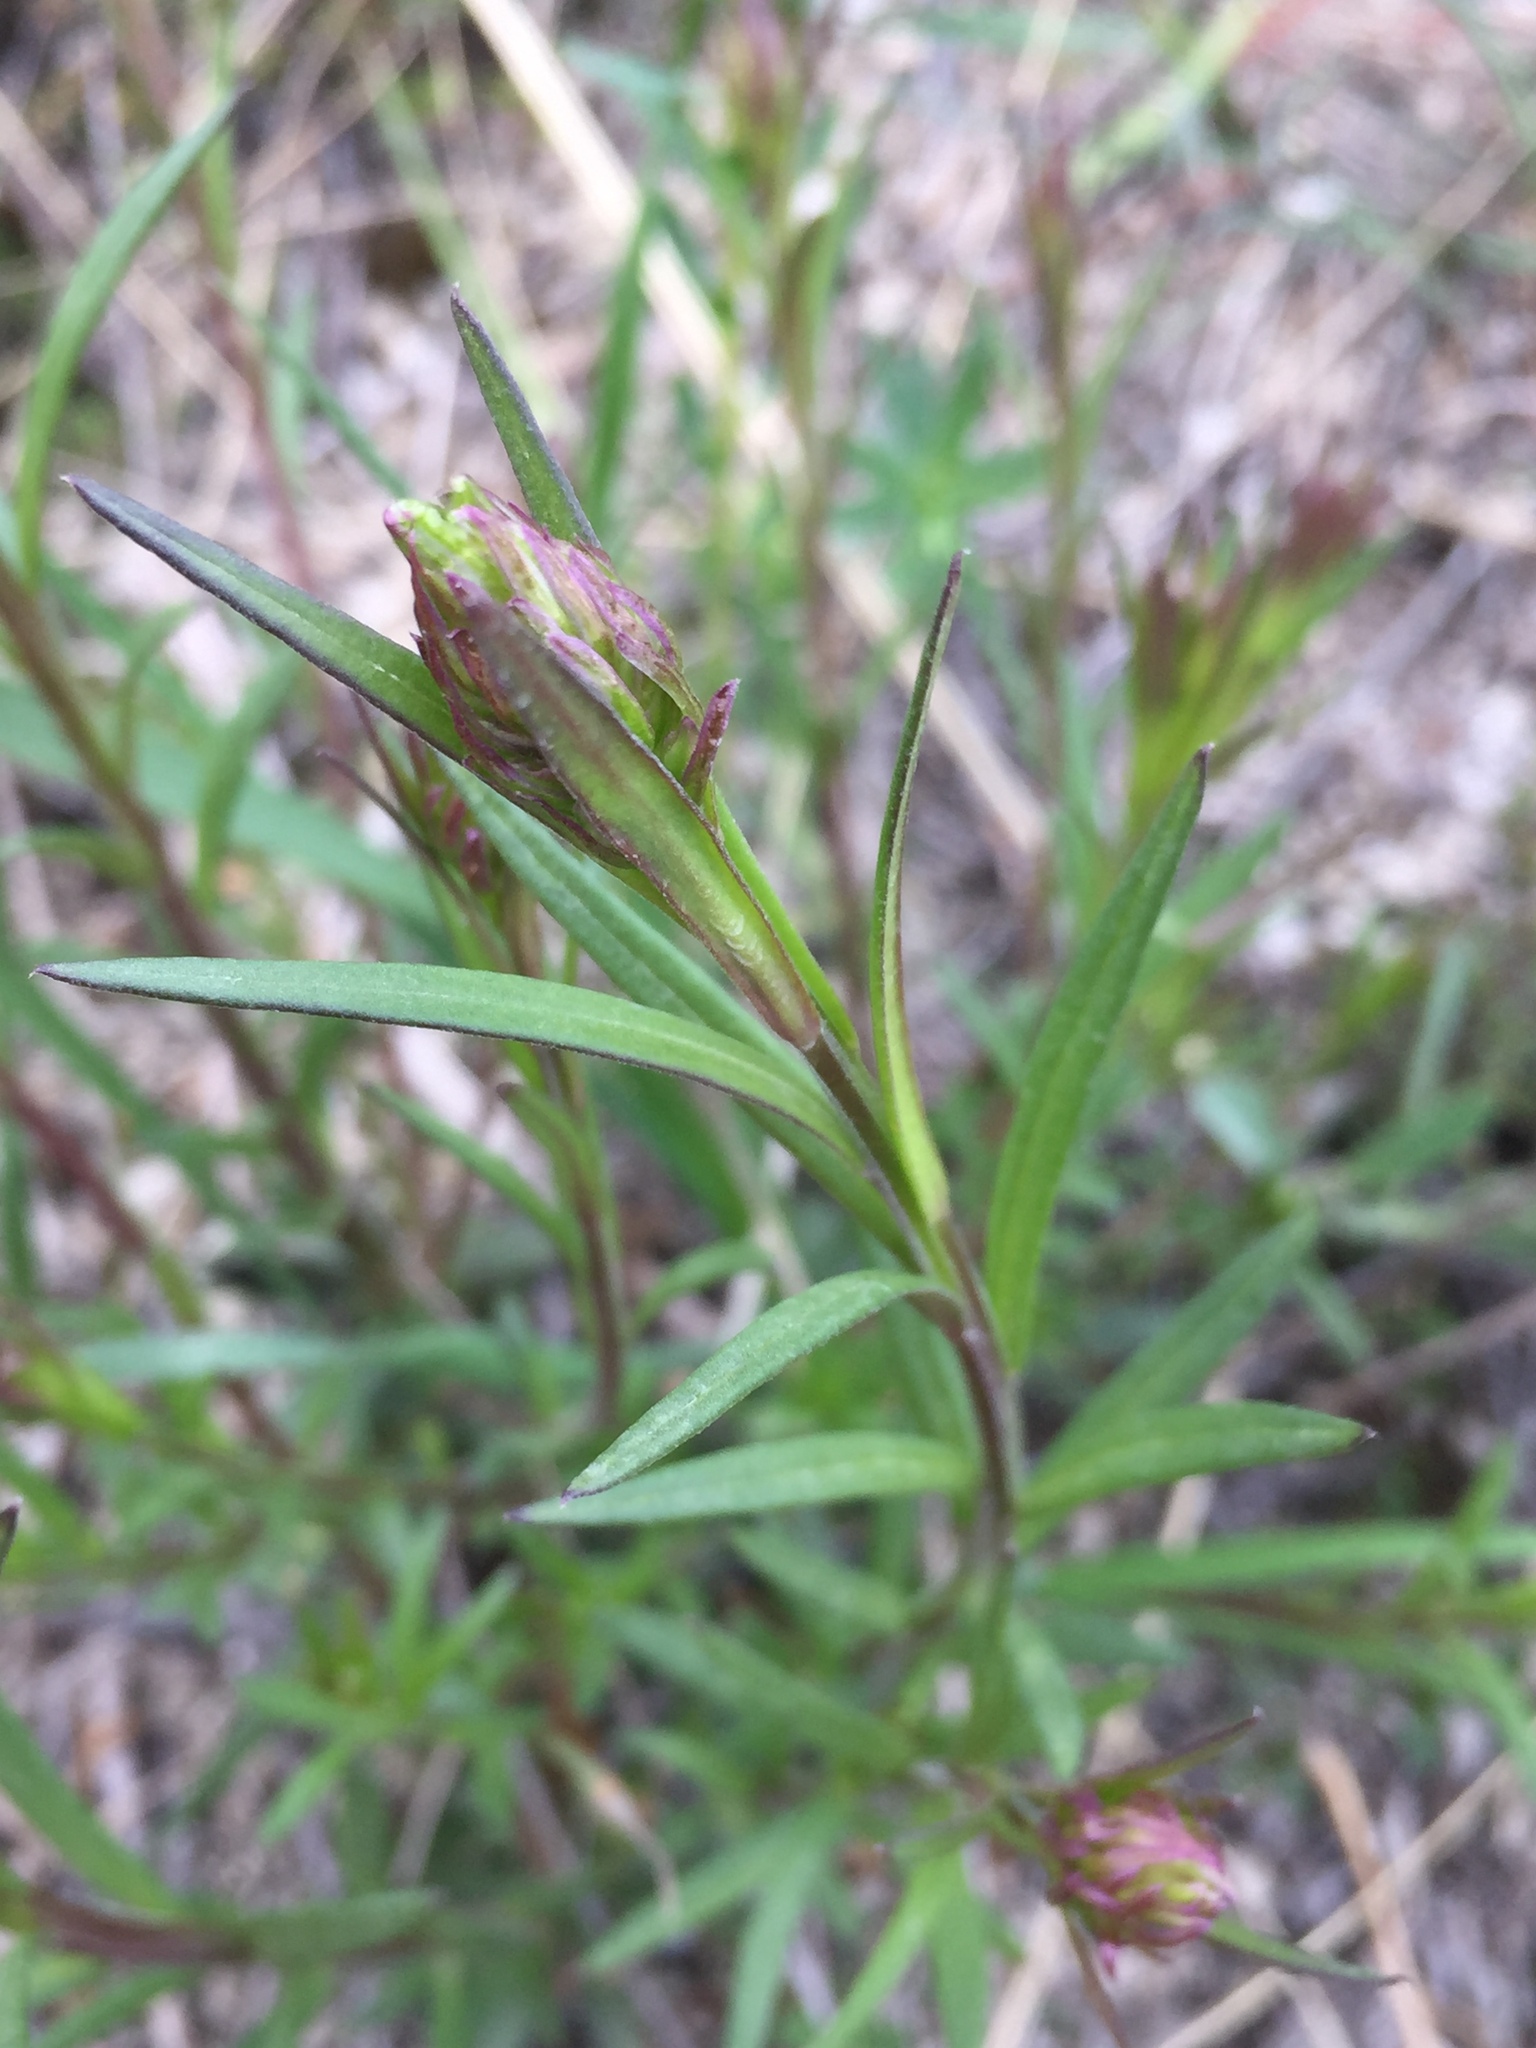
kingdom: Plantae
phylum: Tracheophyta
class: Magnoliopsida
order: Fabales
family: Polygalaceae
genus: Polygala
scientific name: Polygala nicaeensis
